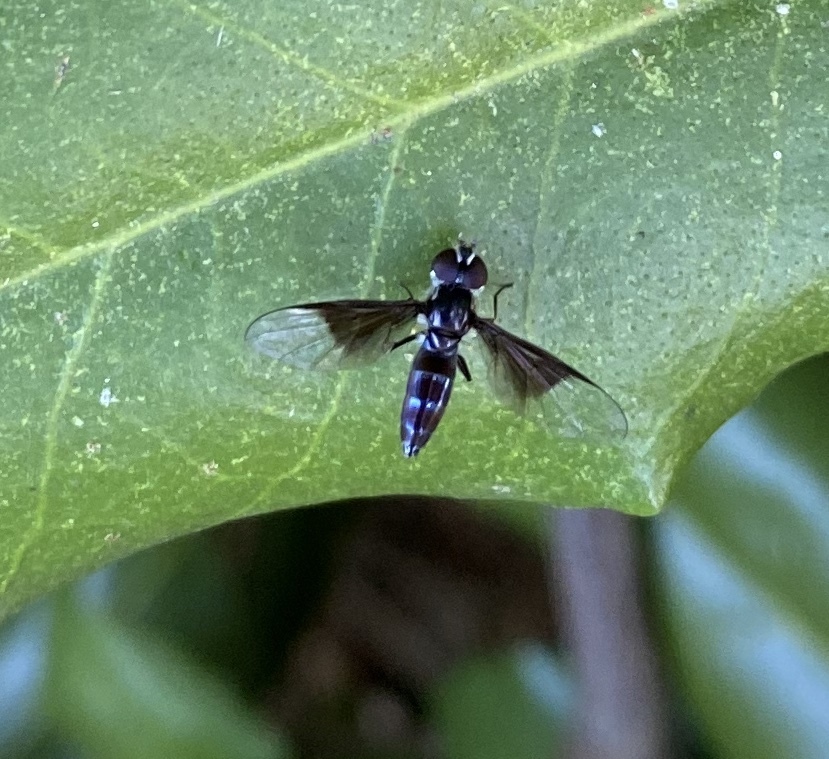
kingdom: Animalia
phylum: Arthropoda
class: Insecta
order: Diptera
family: Syrphidae
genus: Ocyptamus
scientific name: Ocyptamus dimidiatus
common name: Syrphid fly
